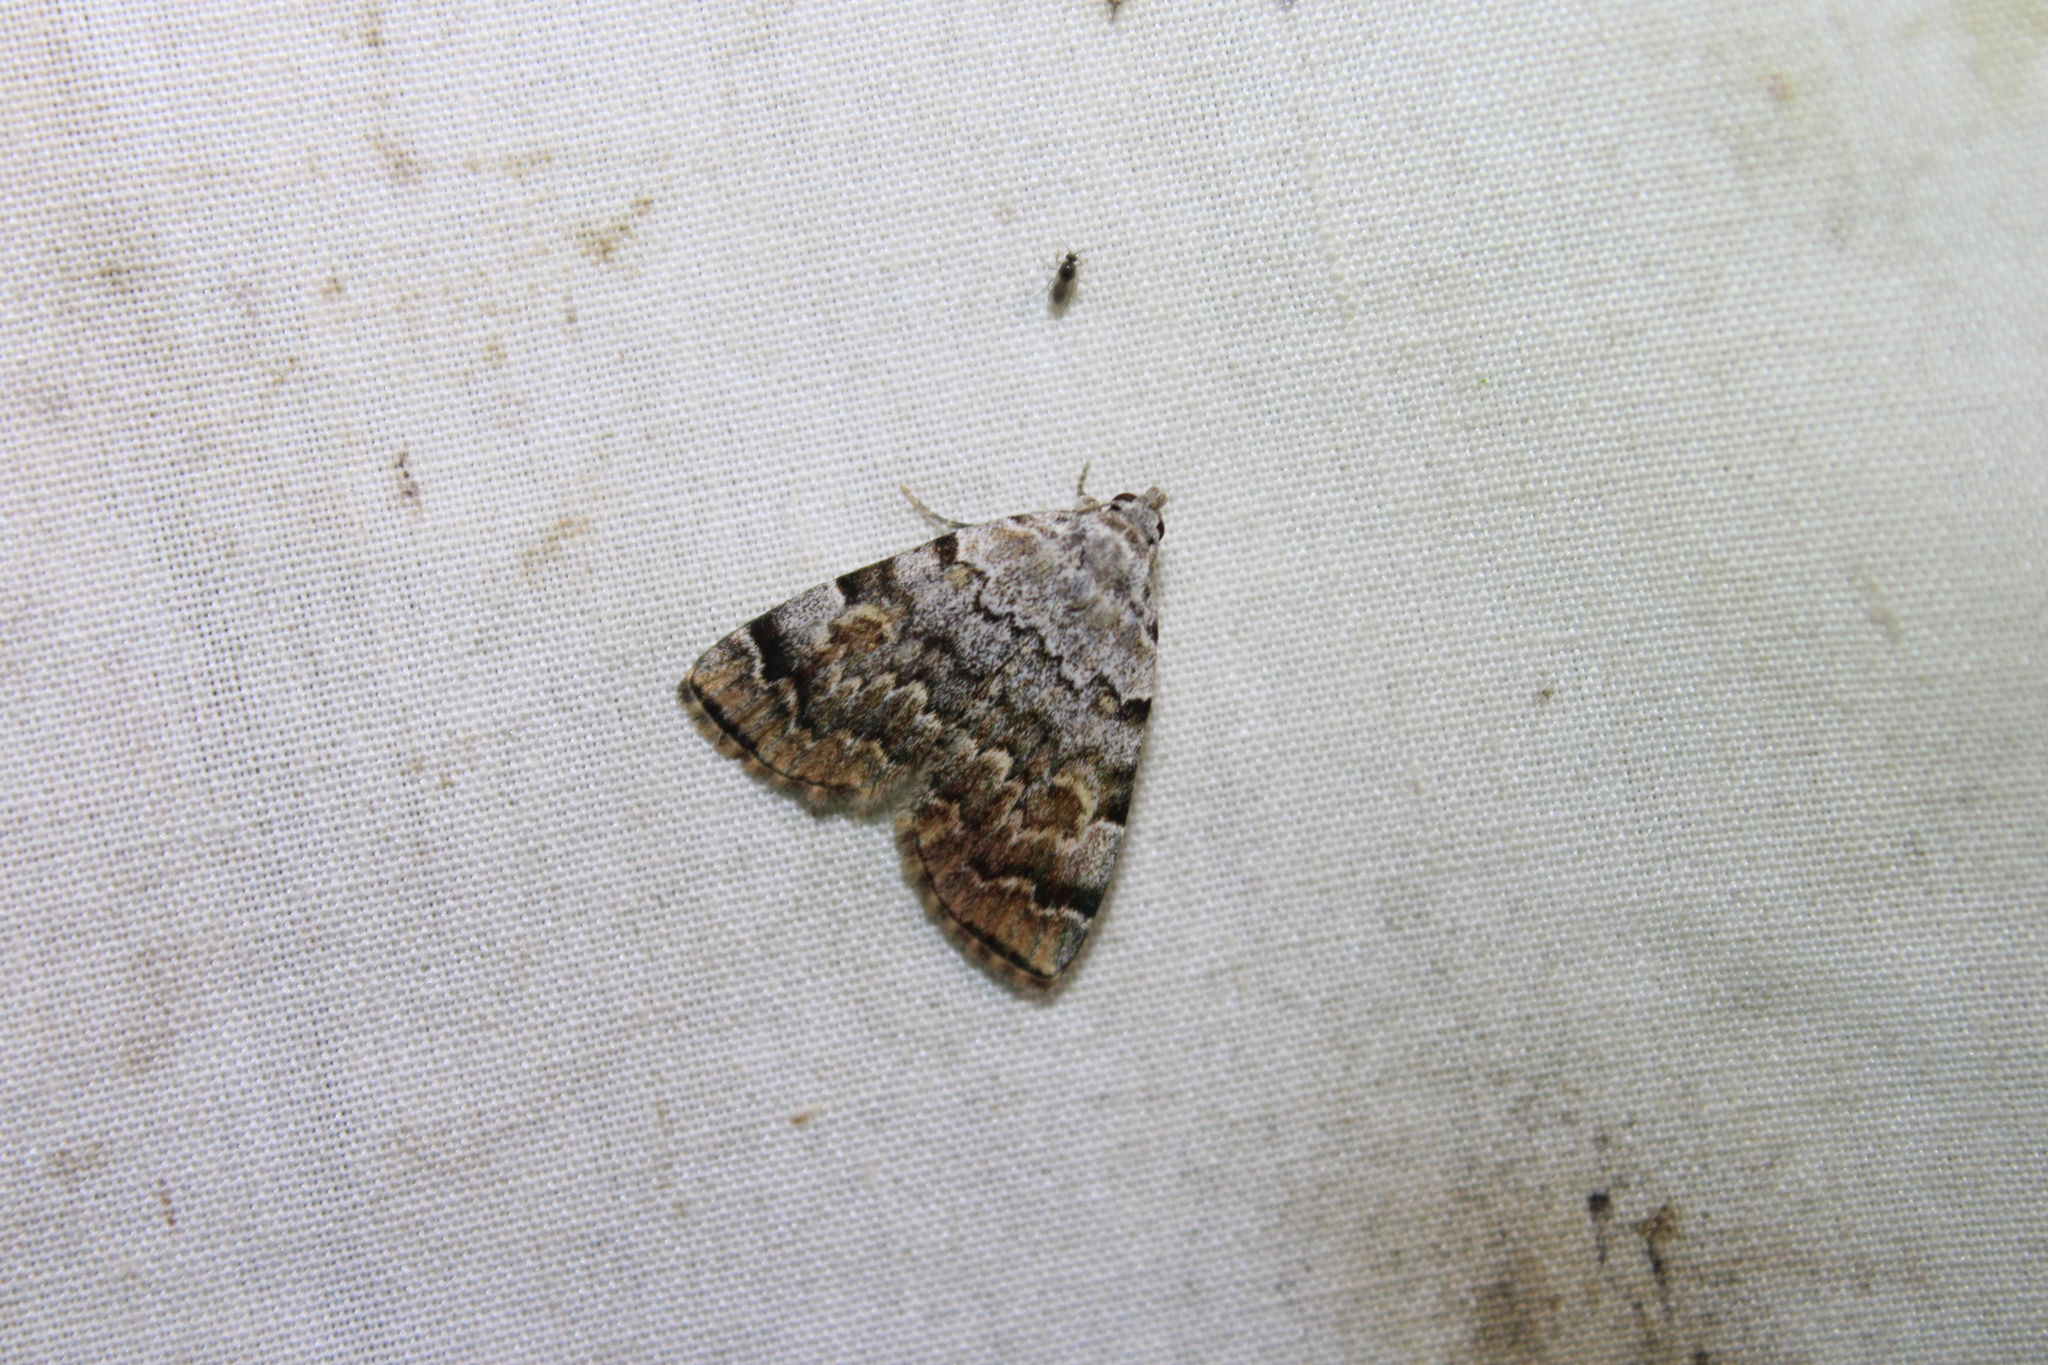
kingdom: Animalia
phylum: Arthropoda
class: Insecta
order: Lepidoptera
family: Erebidae
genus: Idia
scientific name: Idia americalis
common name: American idia moth
